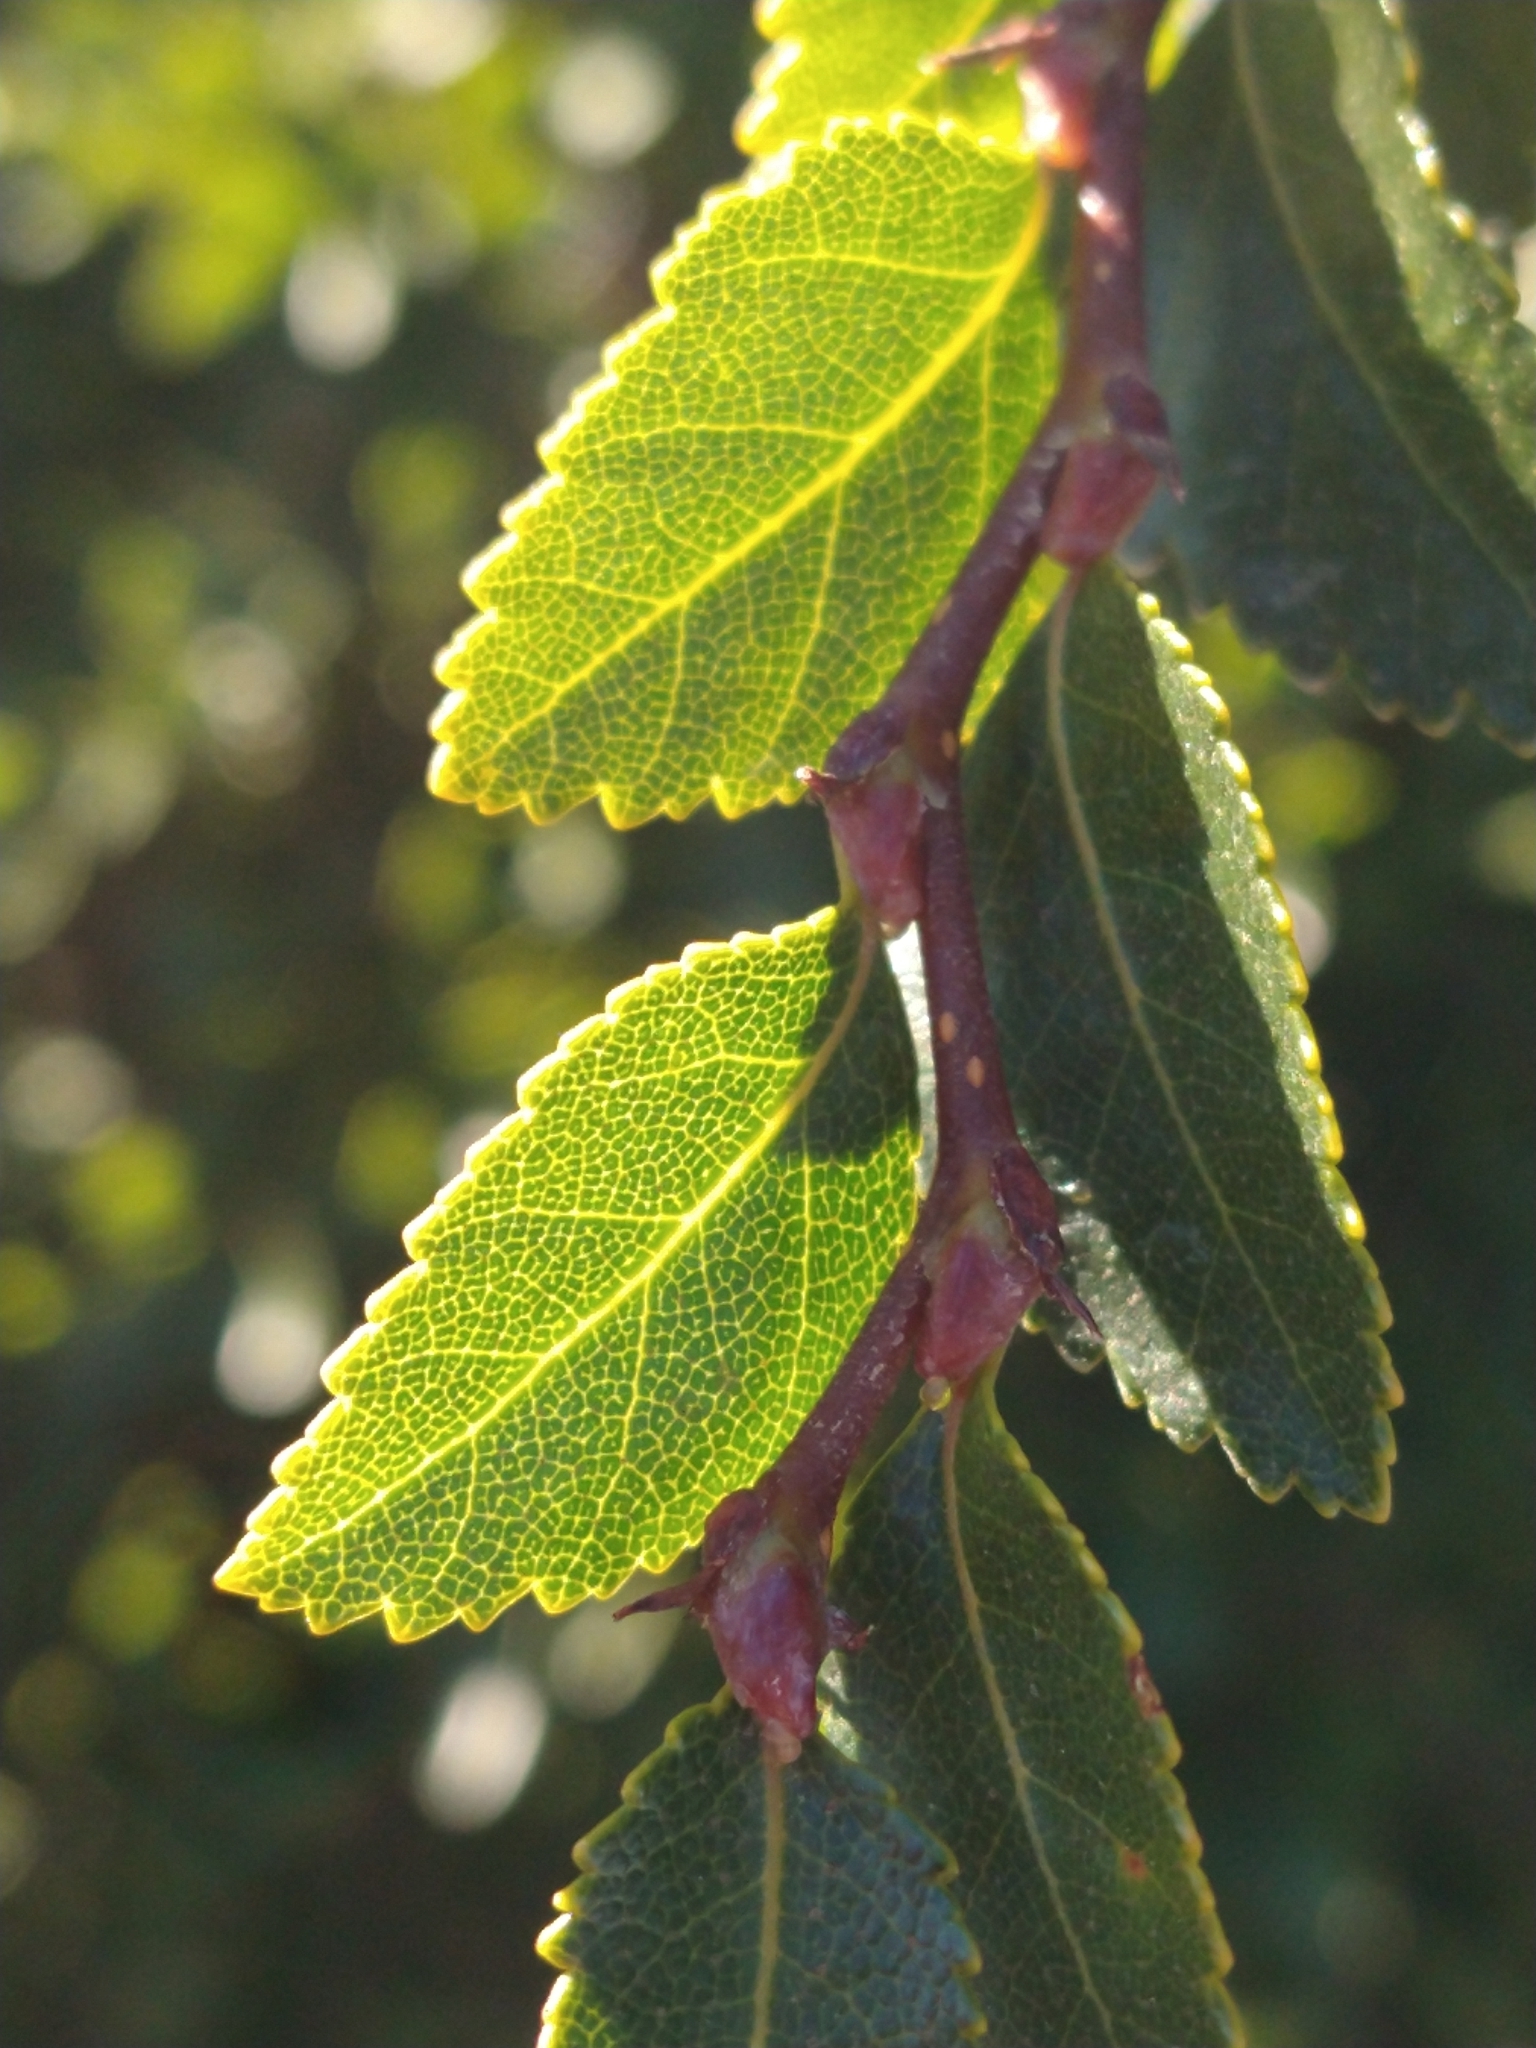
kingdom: Plantae
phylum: Tracheophyta
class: Magnoliopsida
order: Fagales
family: Nothofagaceae
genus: Nothofagus
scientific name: Nothofagus betuloides
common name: Magellan's beech
